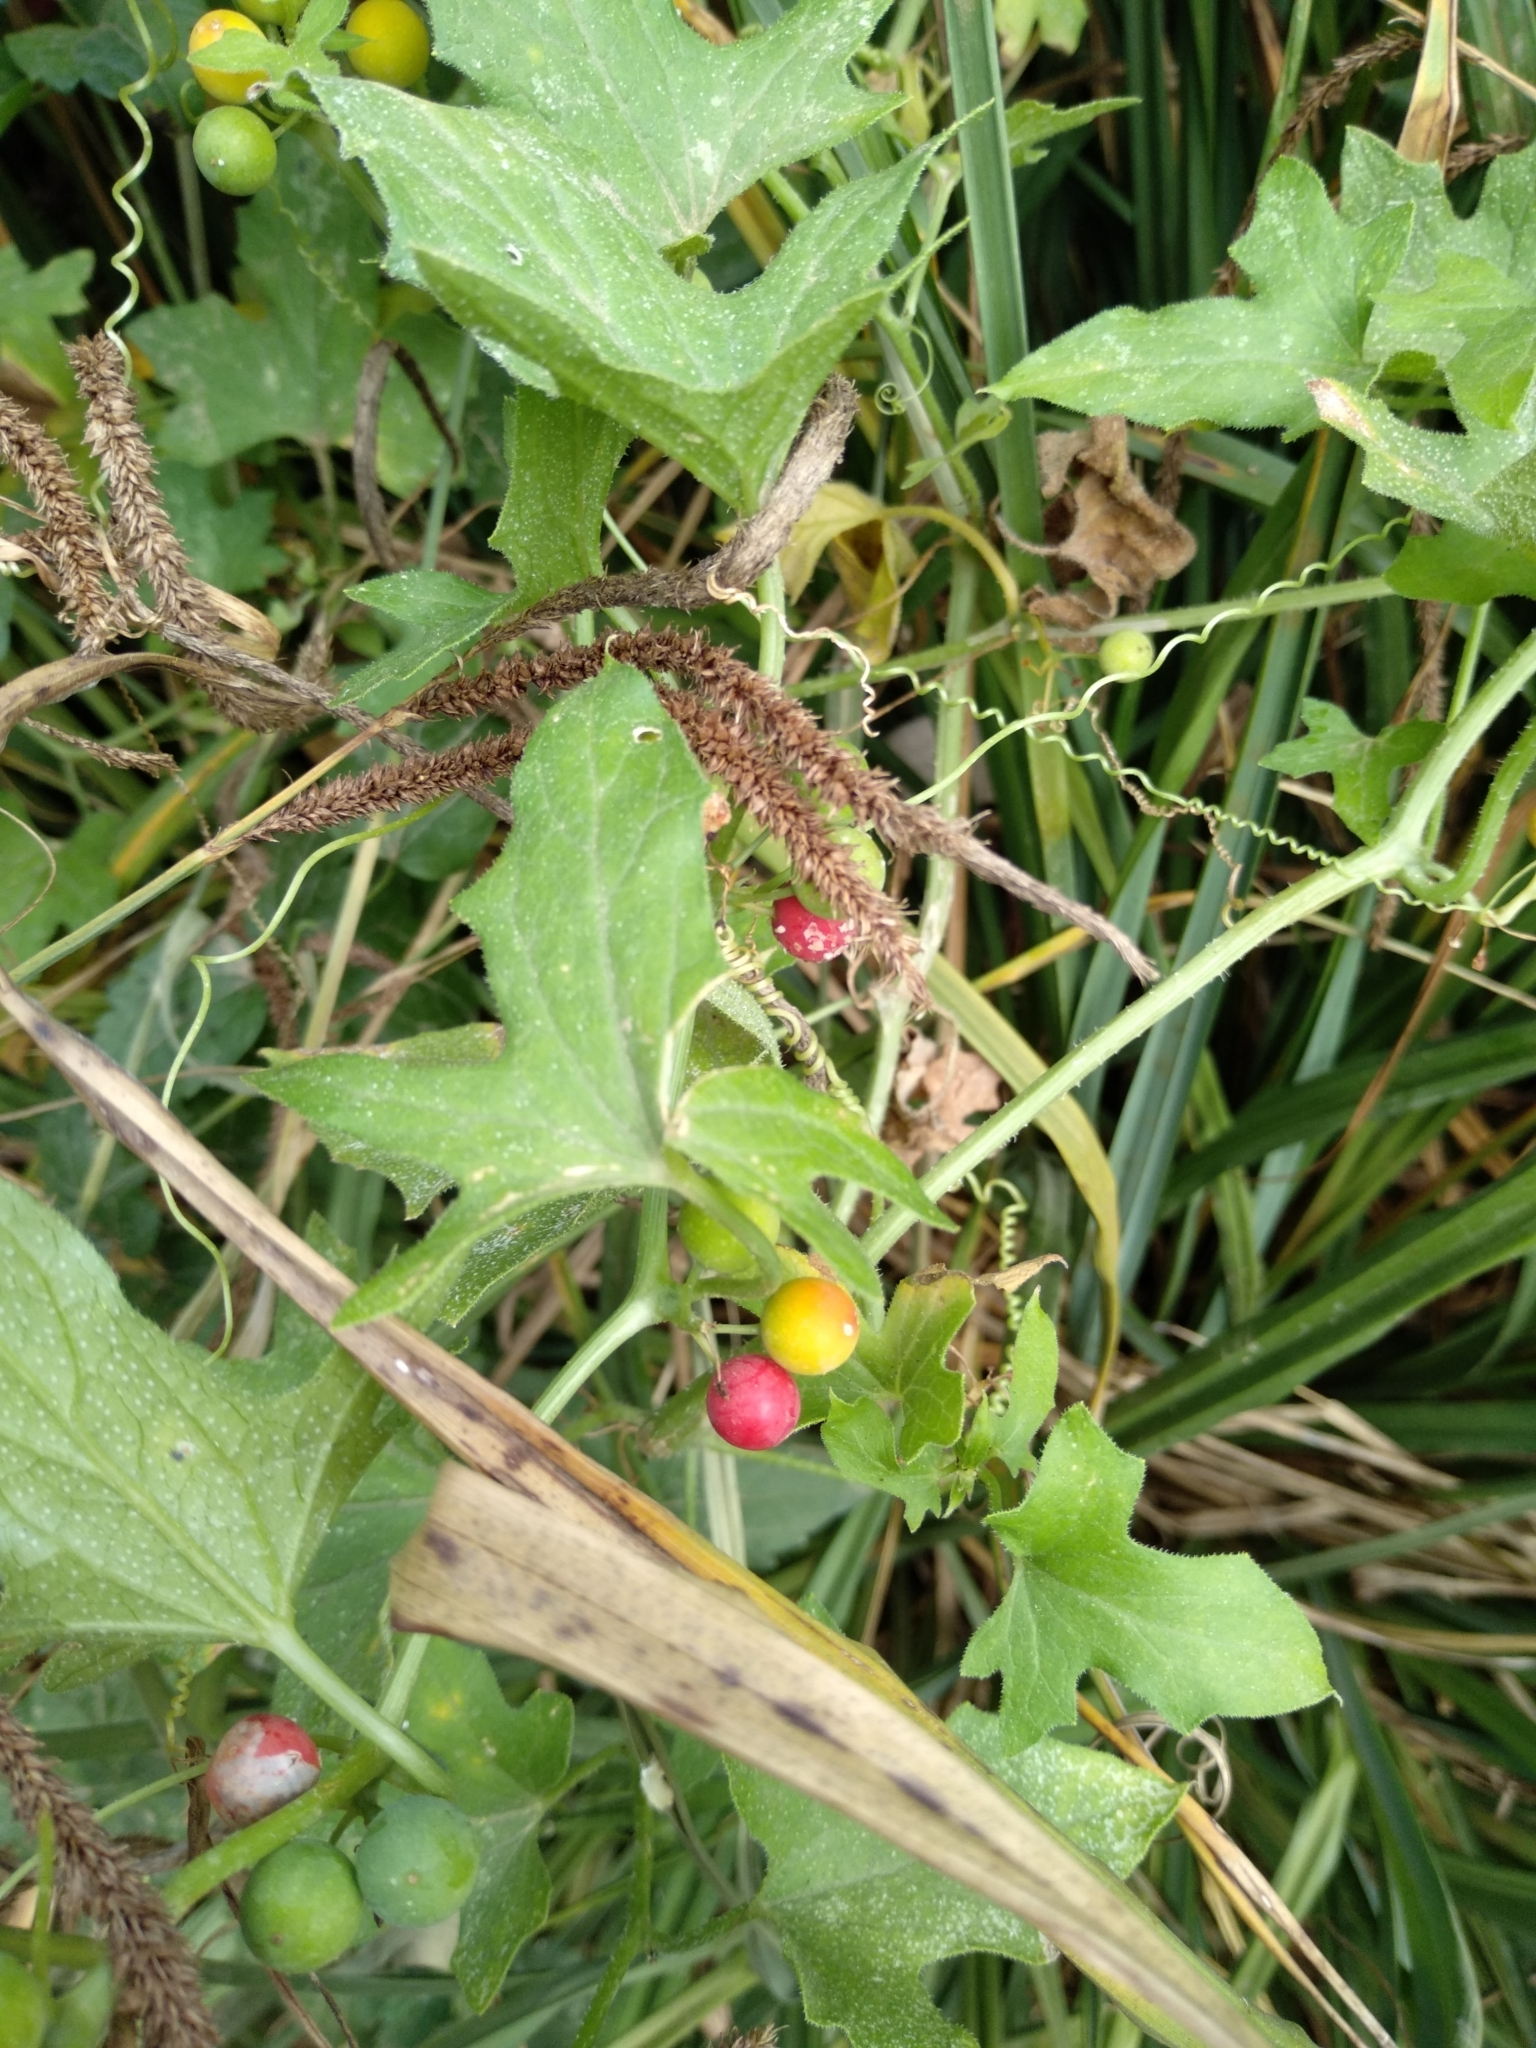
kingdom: Plantae
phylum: Tracheophyta
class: Magnoliopsida
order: Cucurbitales
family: Cucurbitaceae
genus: Bryonia
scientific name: Bryonia dioica
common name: White bryony
